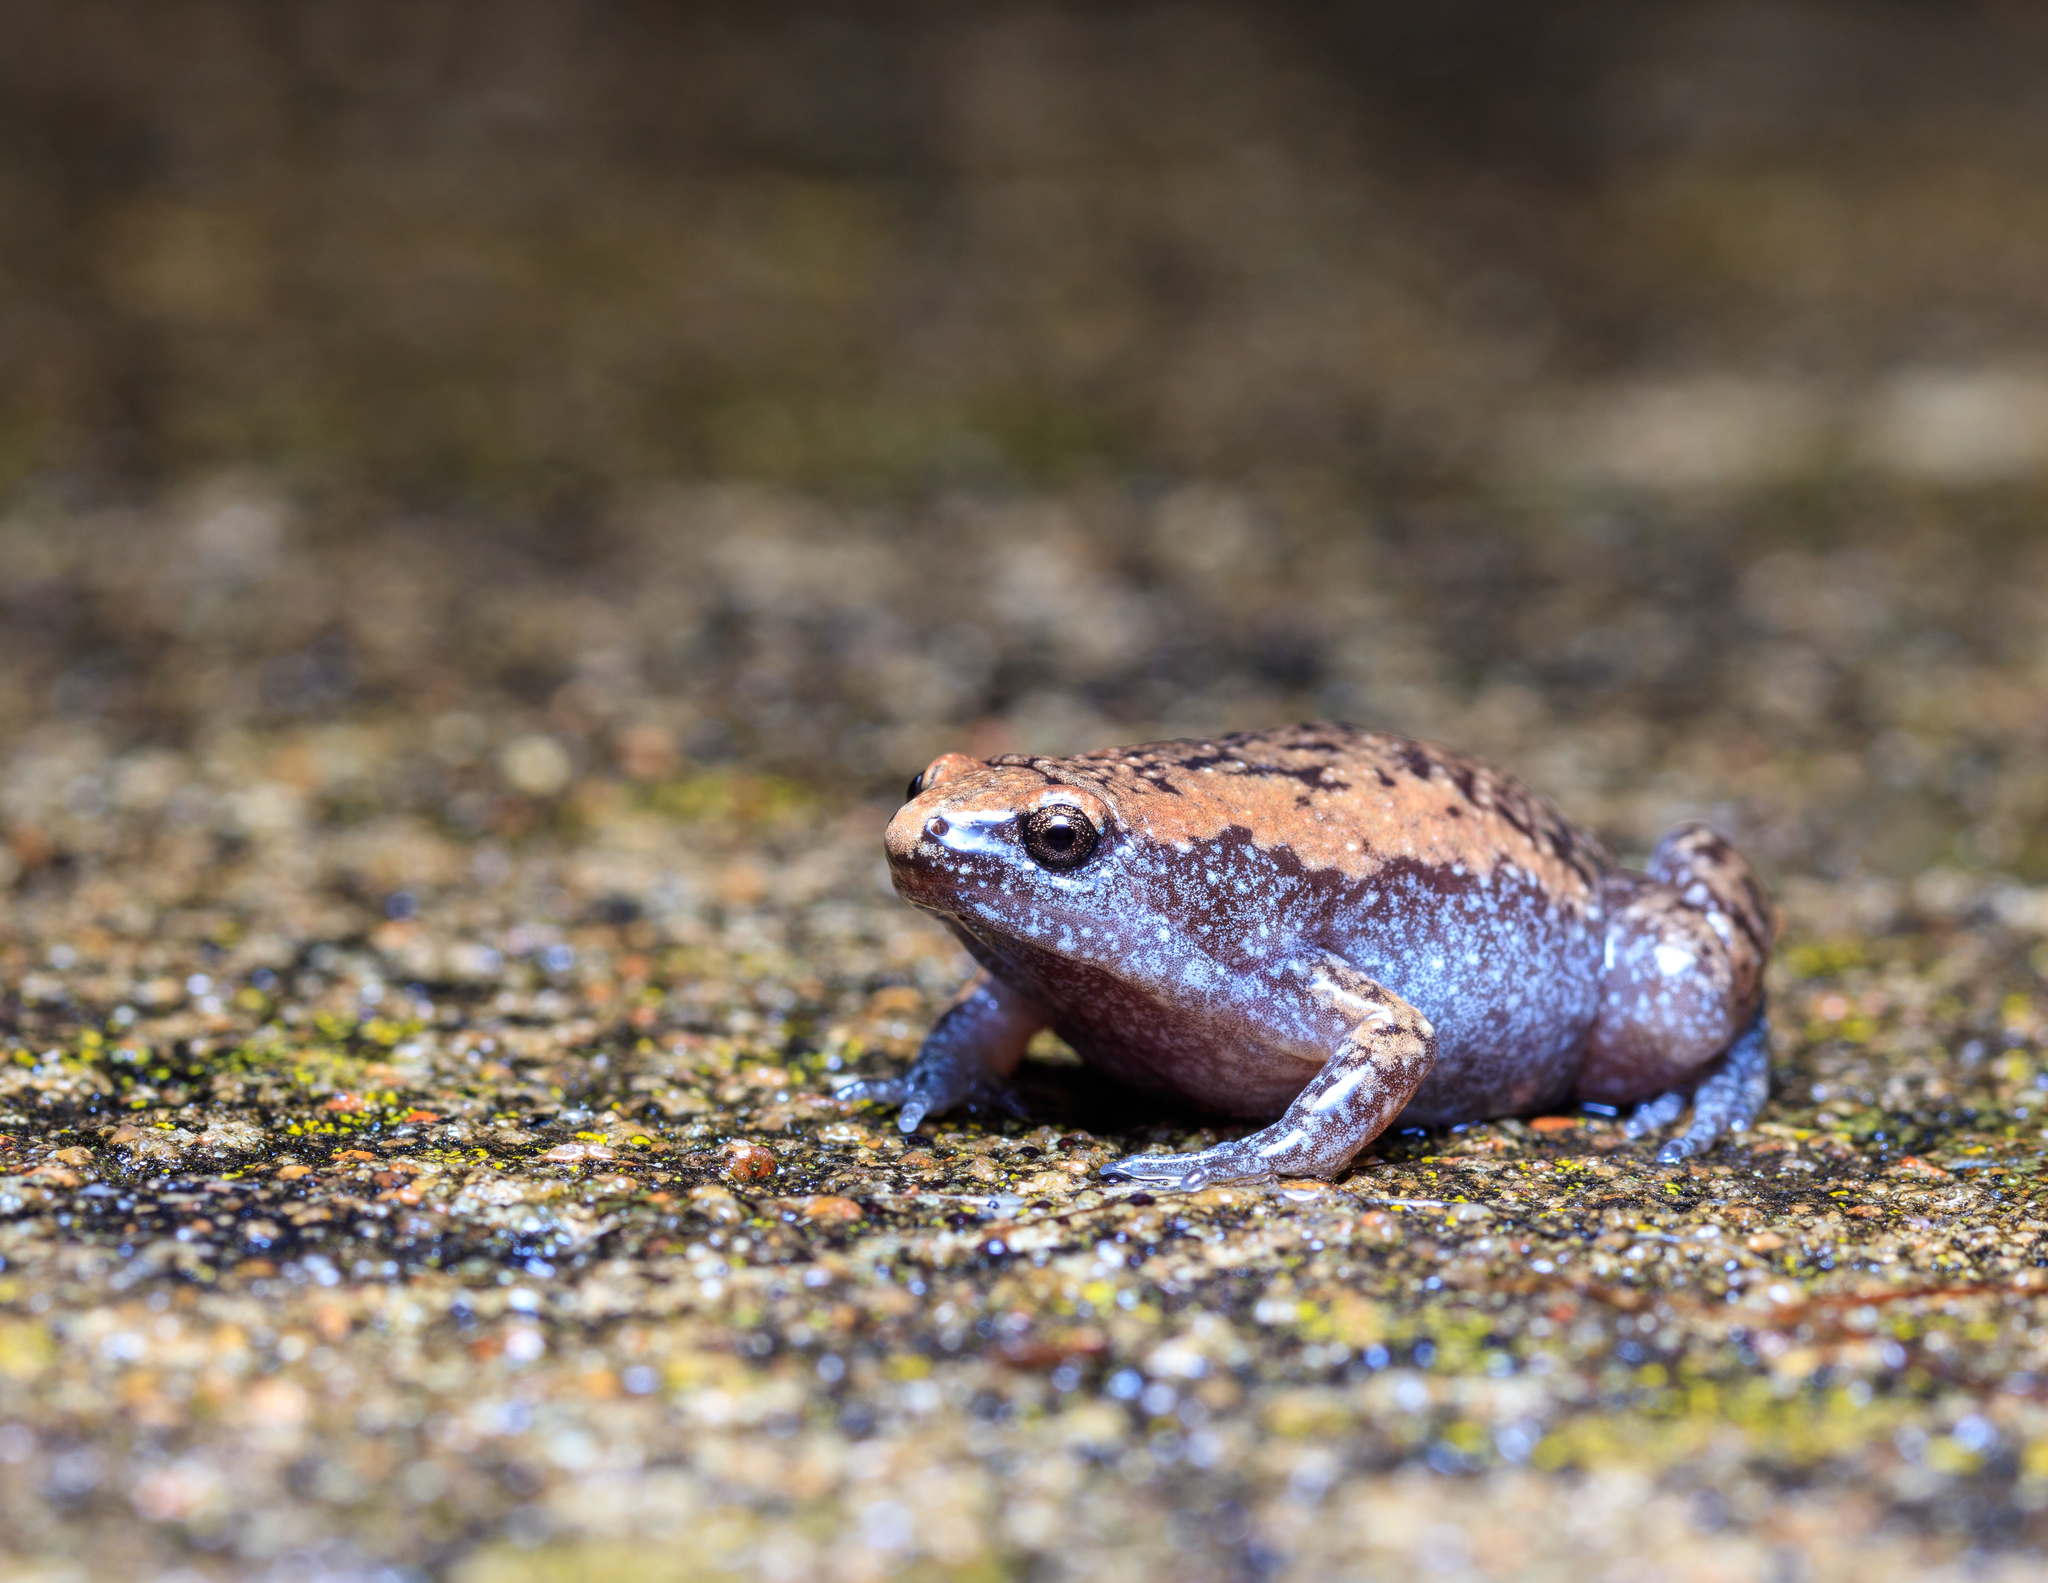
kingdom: Animalia
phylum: Chordata
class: Amphibia
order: Anura
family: Microhylidae
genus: Gastrophryne
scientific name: Gastrophryne carolinensis
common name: Eastern narrowmouth toad
